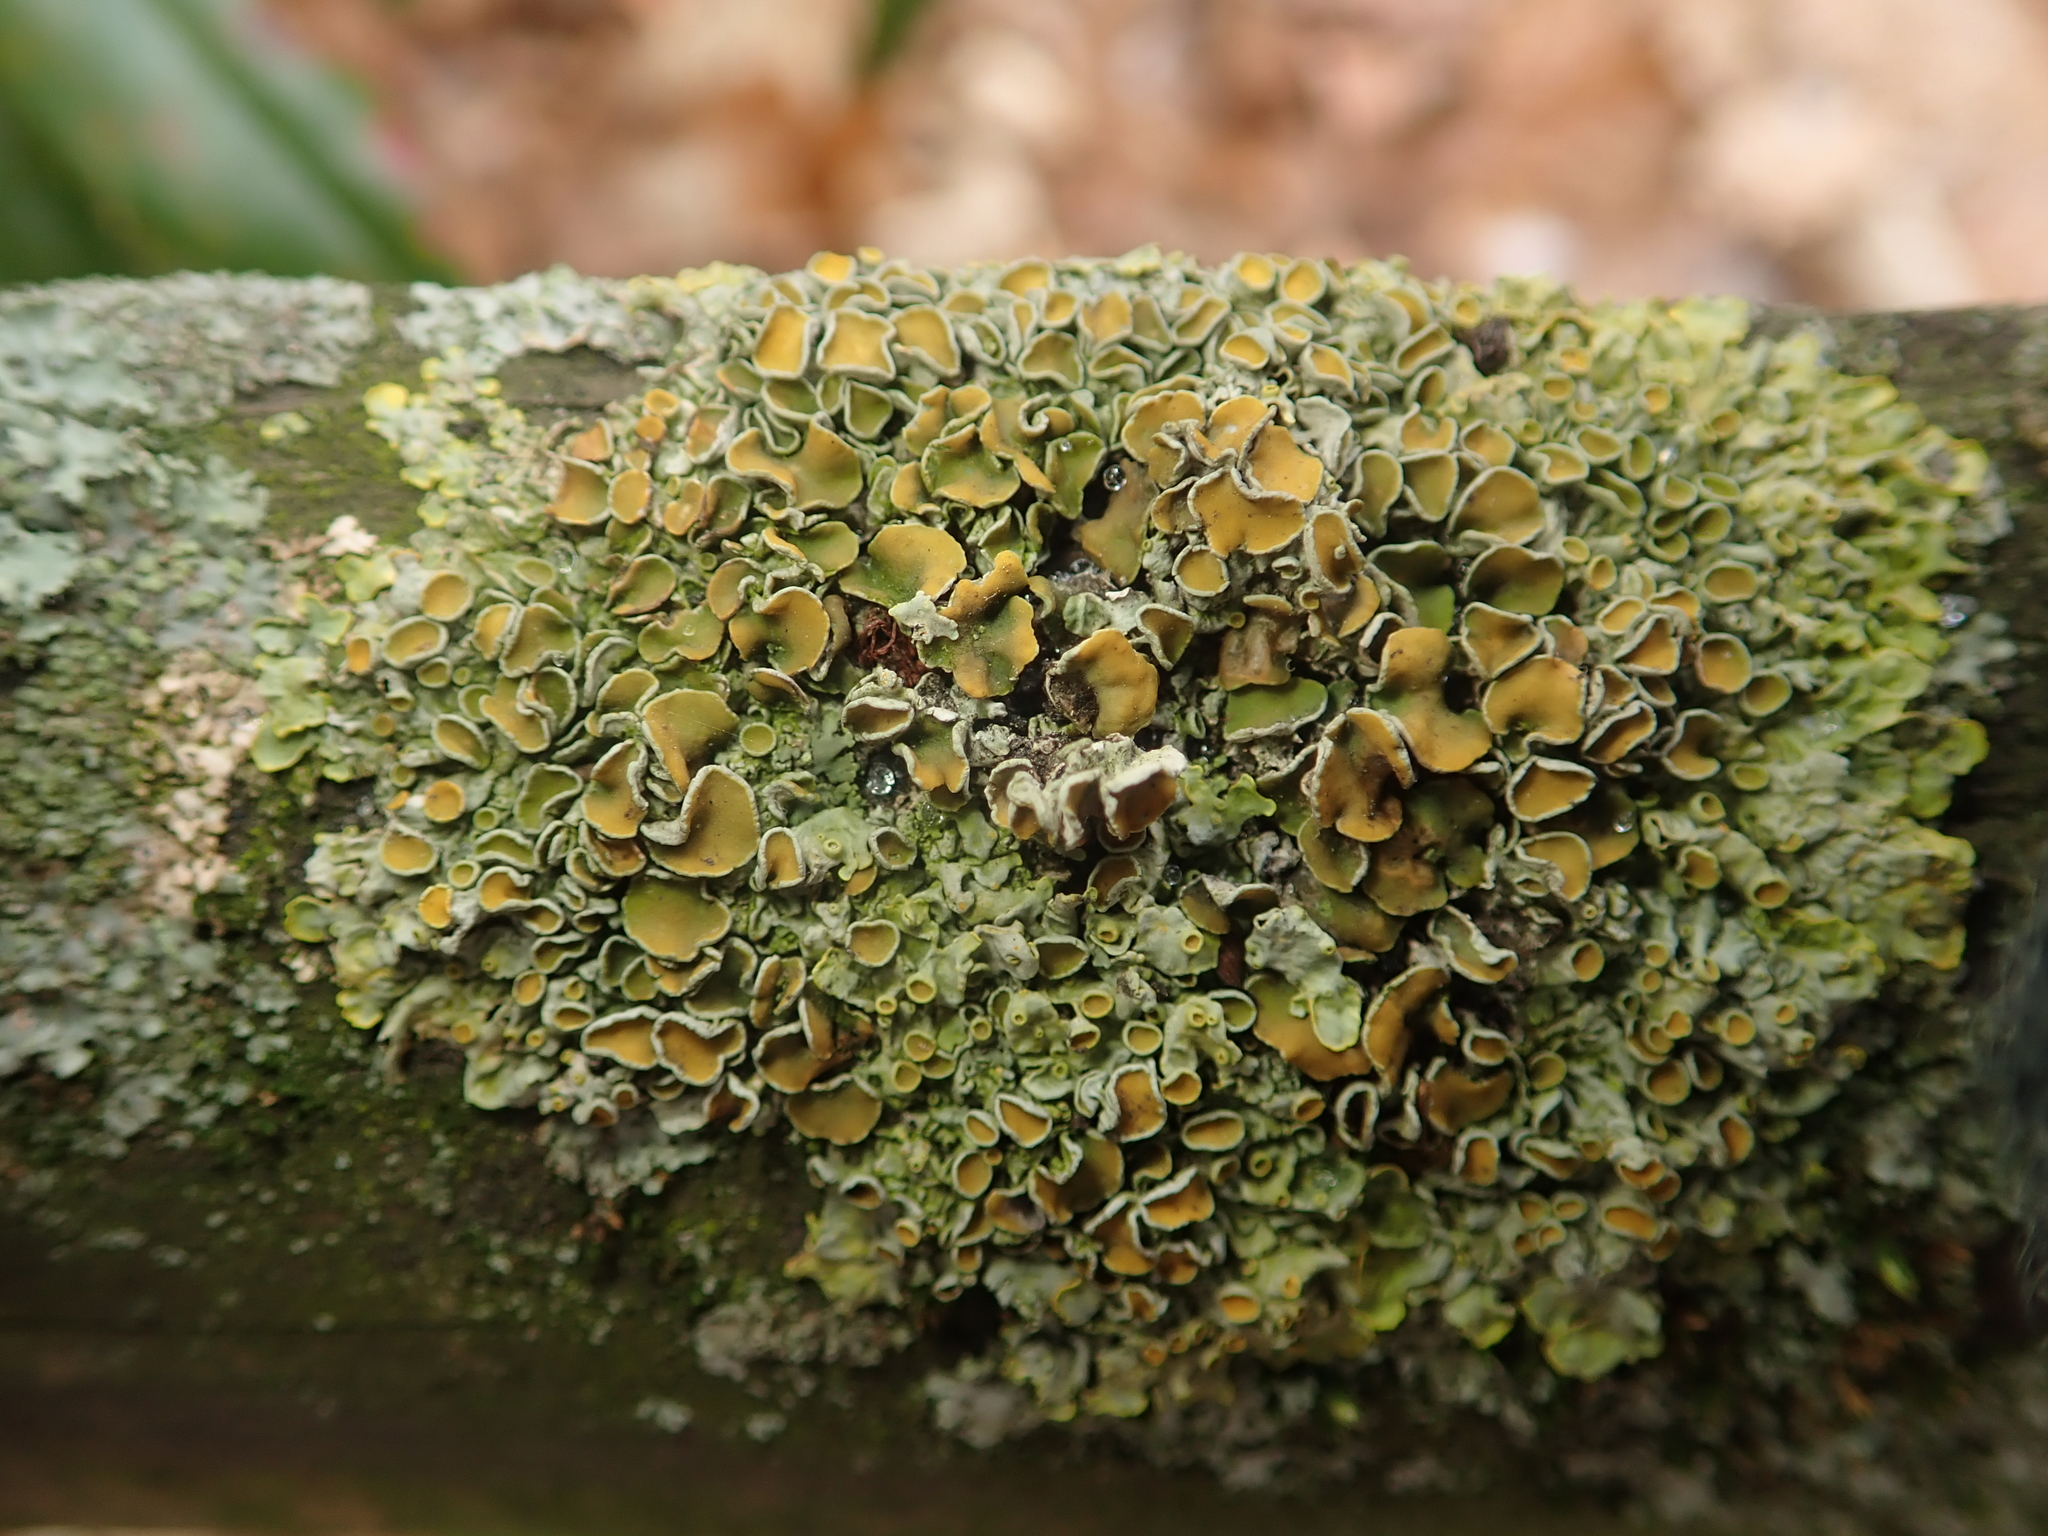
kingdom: Fungi
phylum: Ascomycota
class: Lecanoromycetes
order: Teloschistales
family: Teloschistaceae
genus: Xanthoria
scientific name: Xanthoria parietina
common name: Common orange lichen
